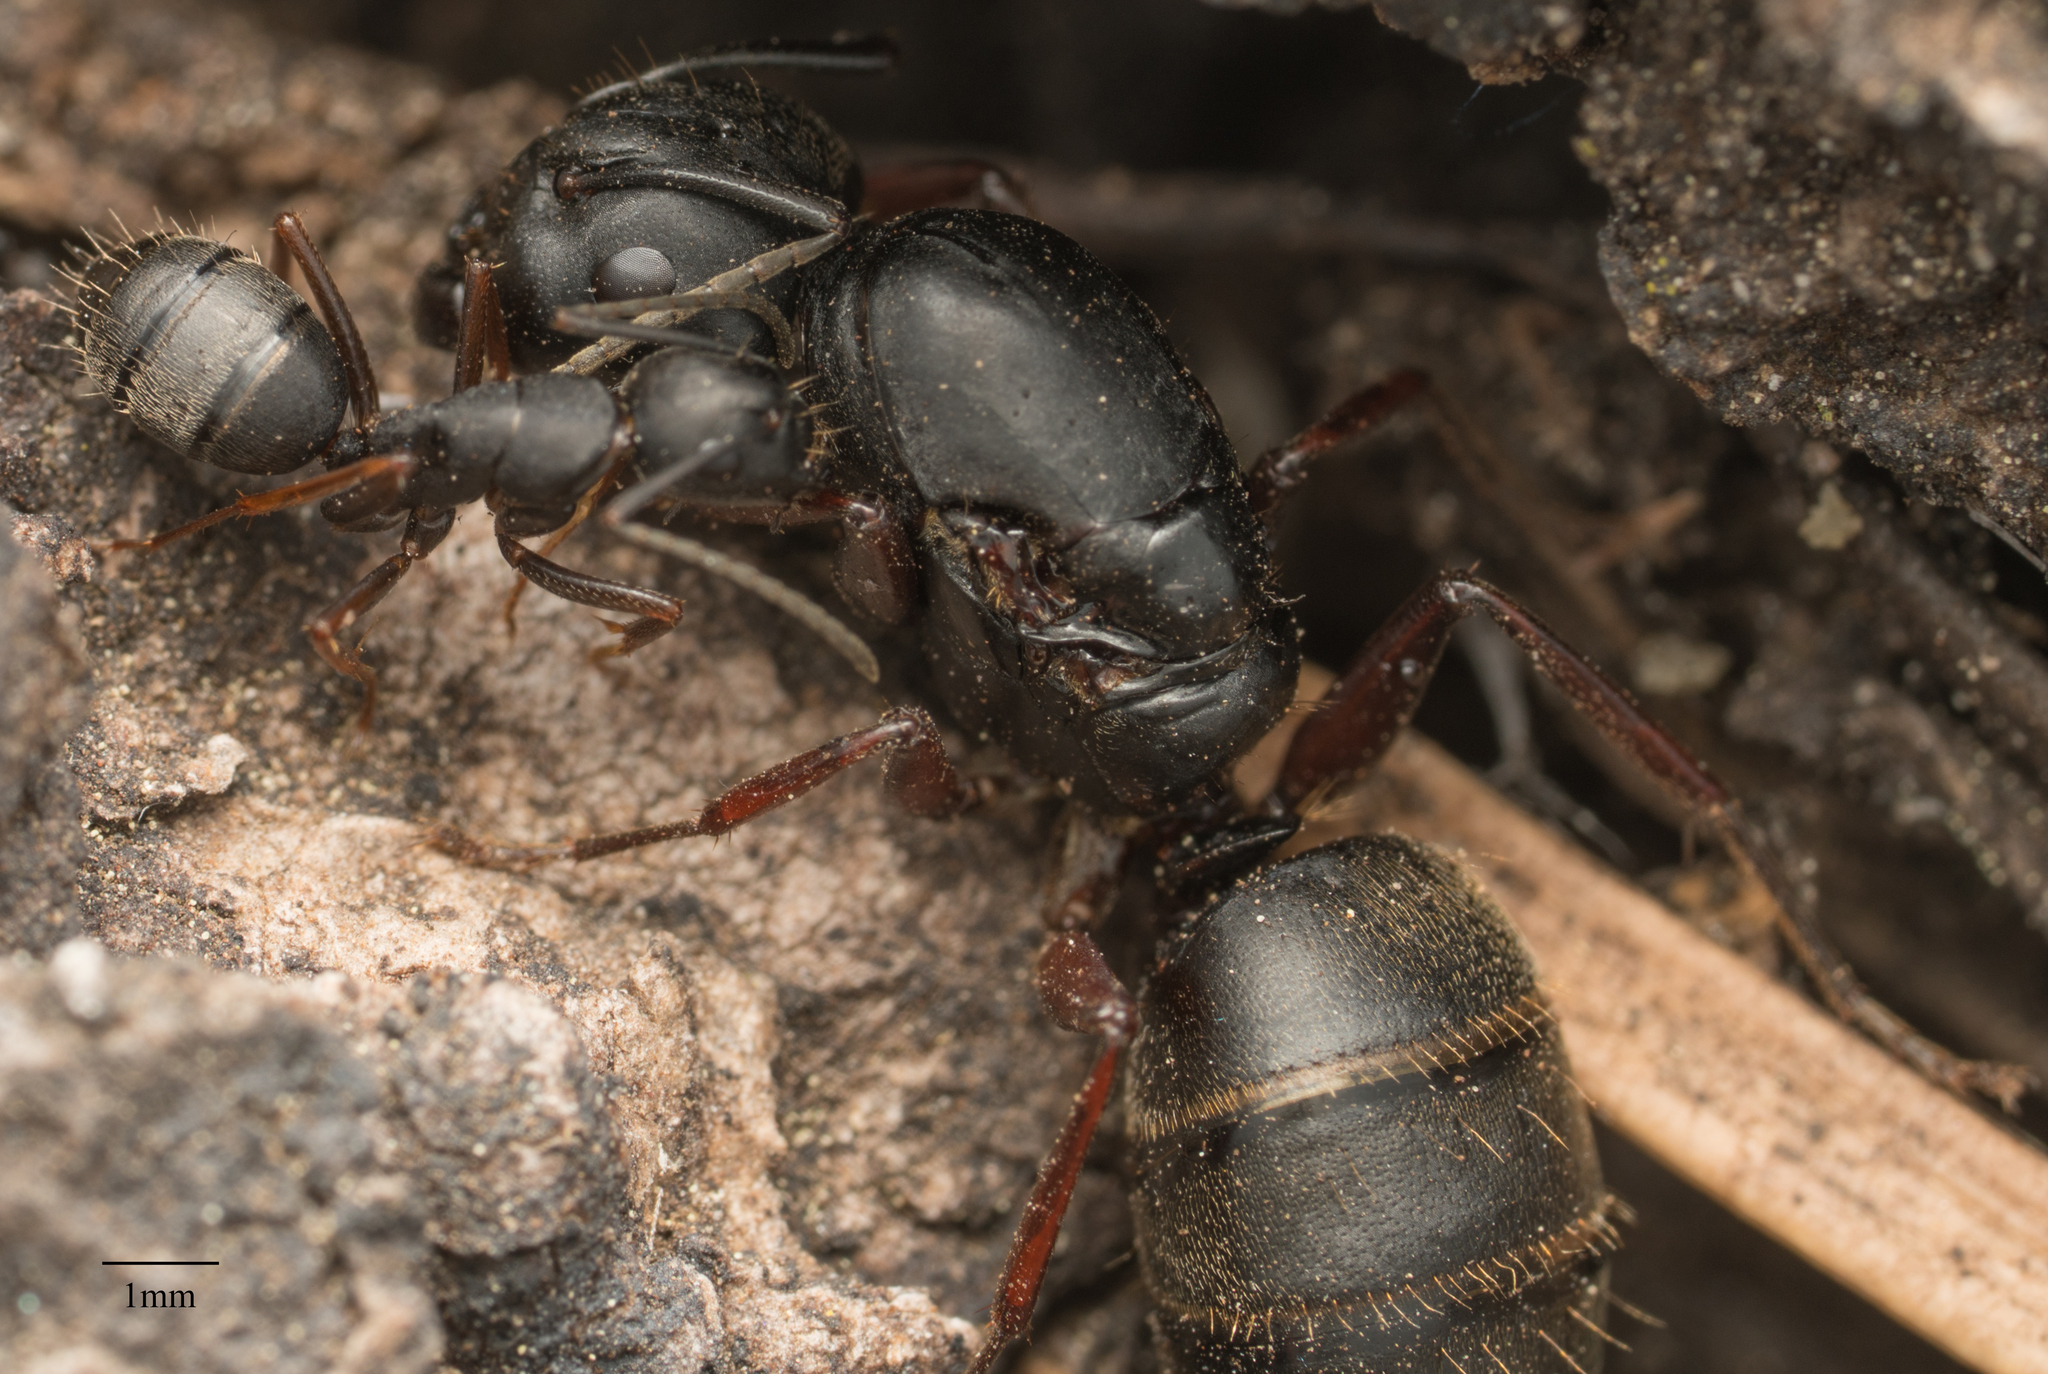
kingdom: Animalia
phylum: Arthropoda
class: Insecta
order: Hymenoptera
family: Formicidae
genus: Camponotus
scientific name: Camponotus modoc
